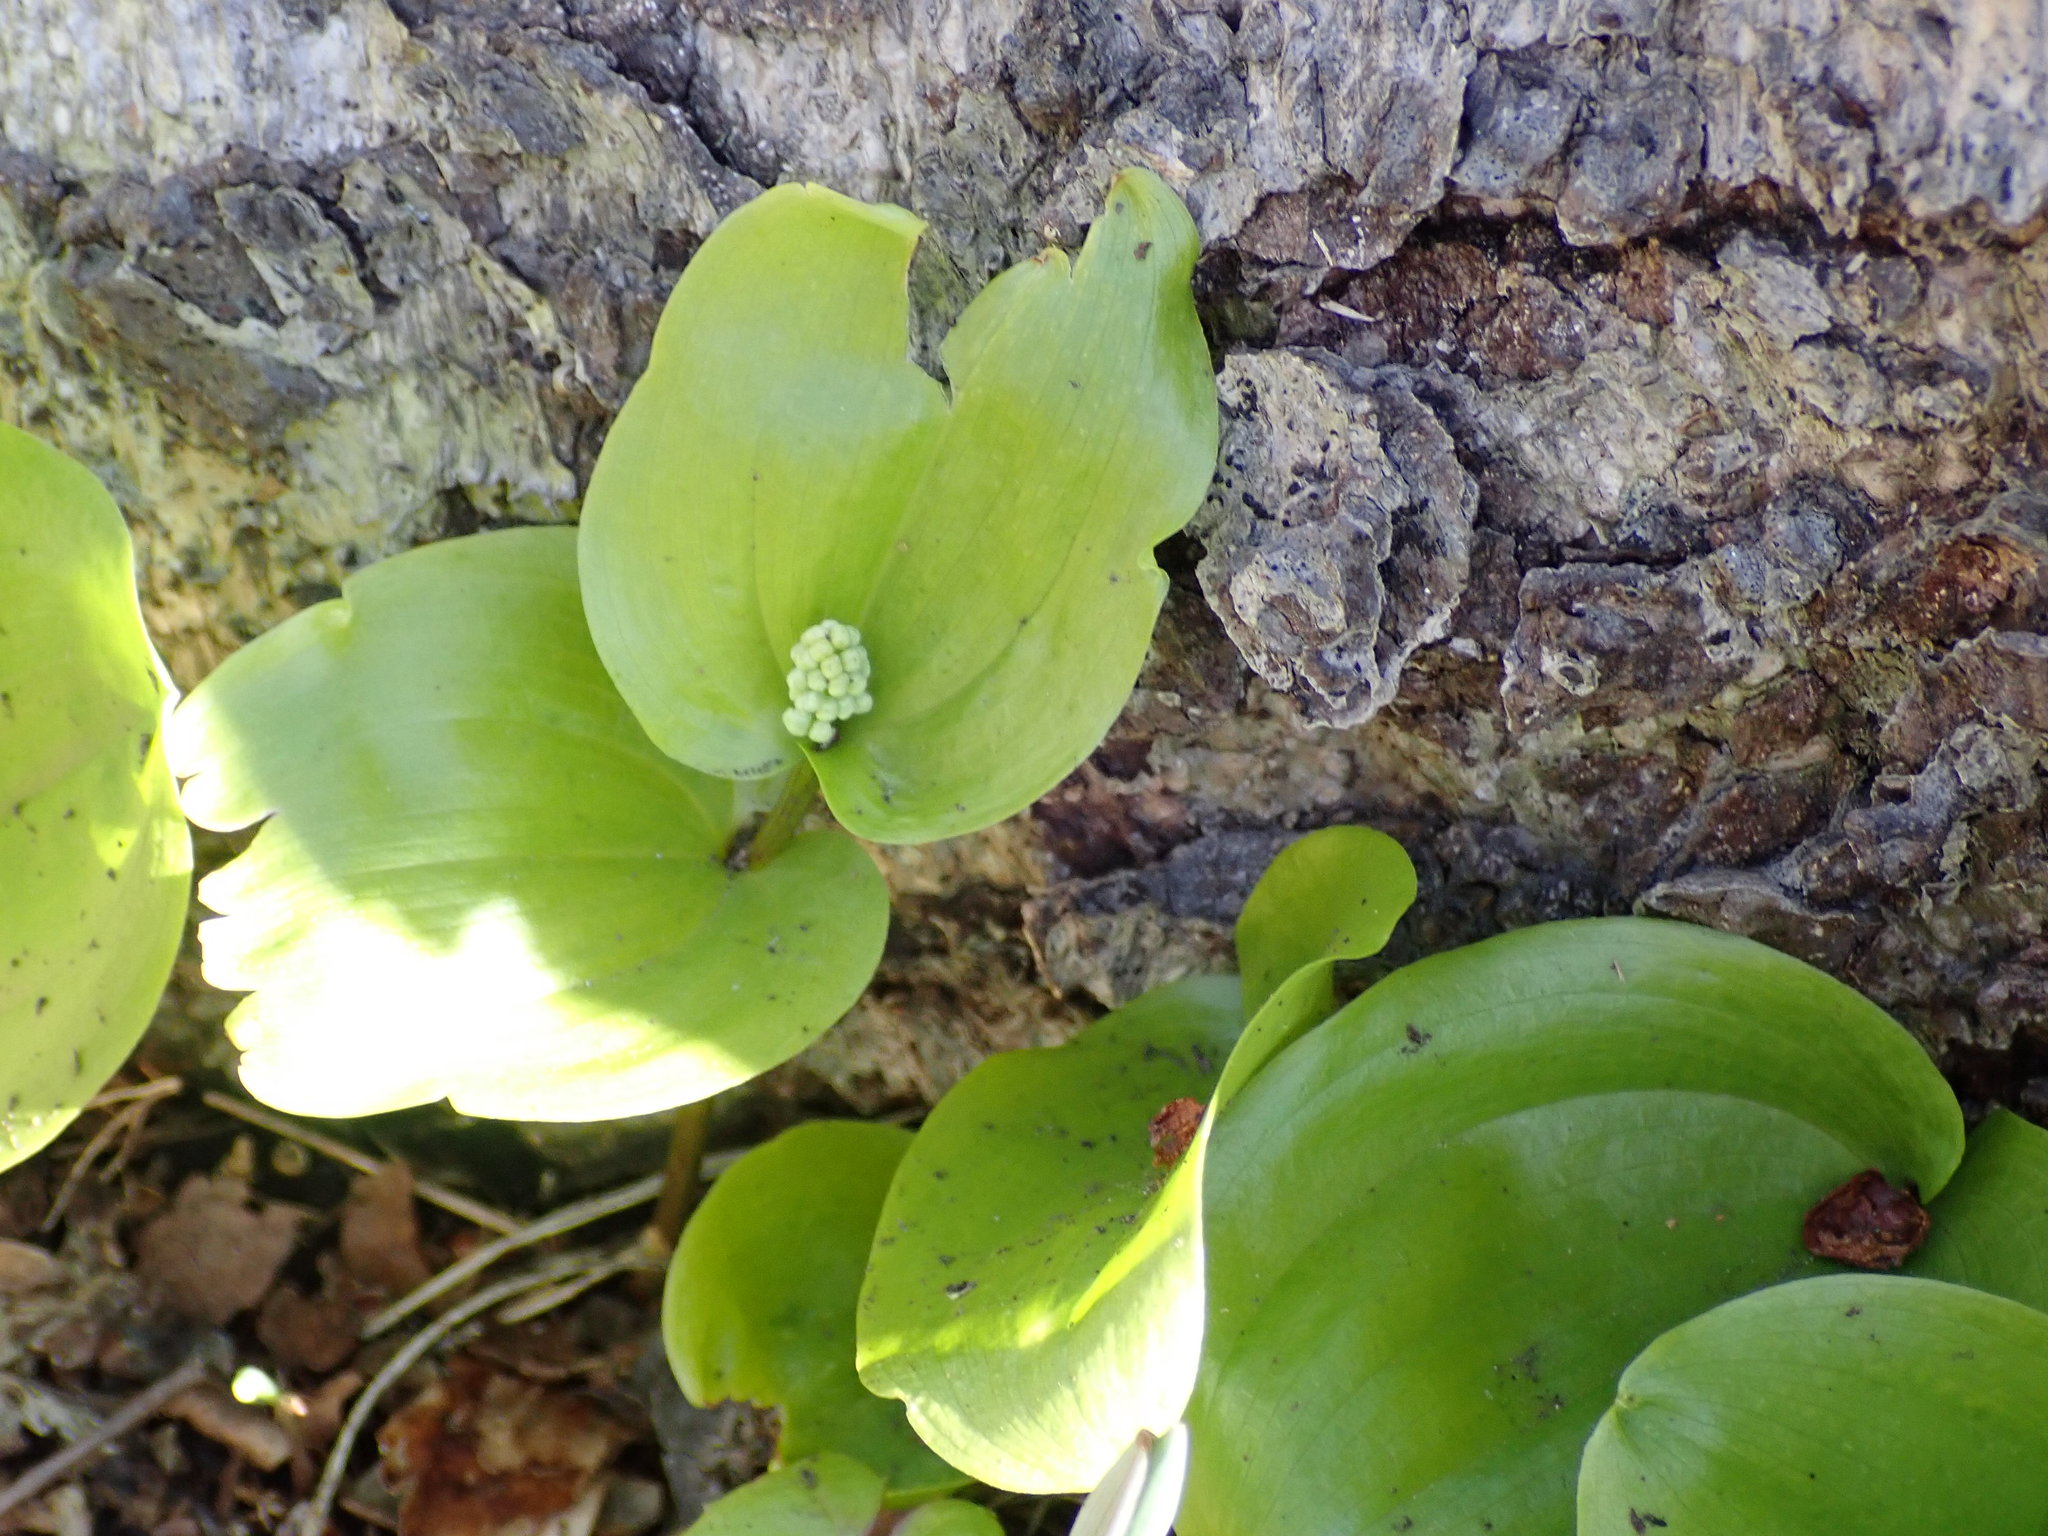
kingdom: Plantae
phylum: Tracheophyta
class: Liliopsida
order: Asparagales
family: Asparagaceae
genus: Maianthemum
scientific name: Maianthemum canadense
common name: False lily-of-the-valley
